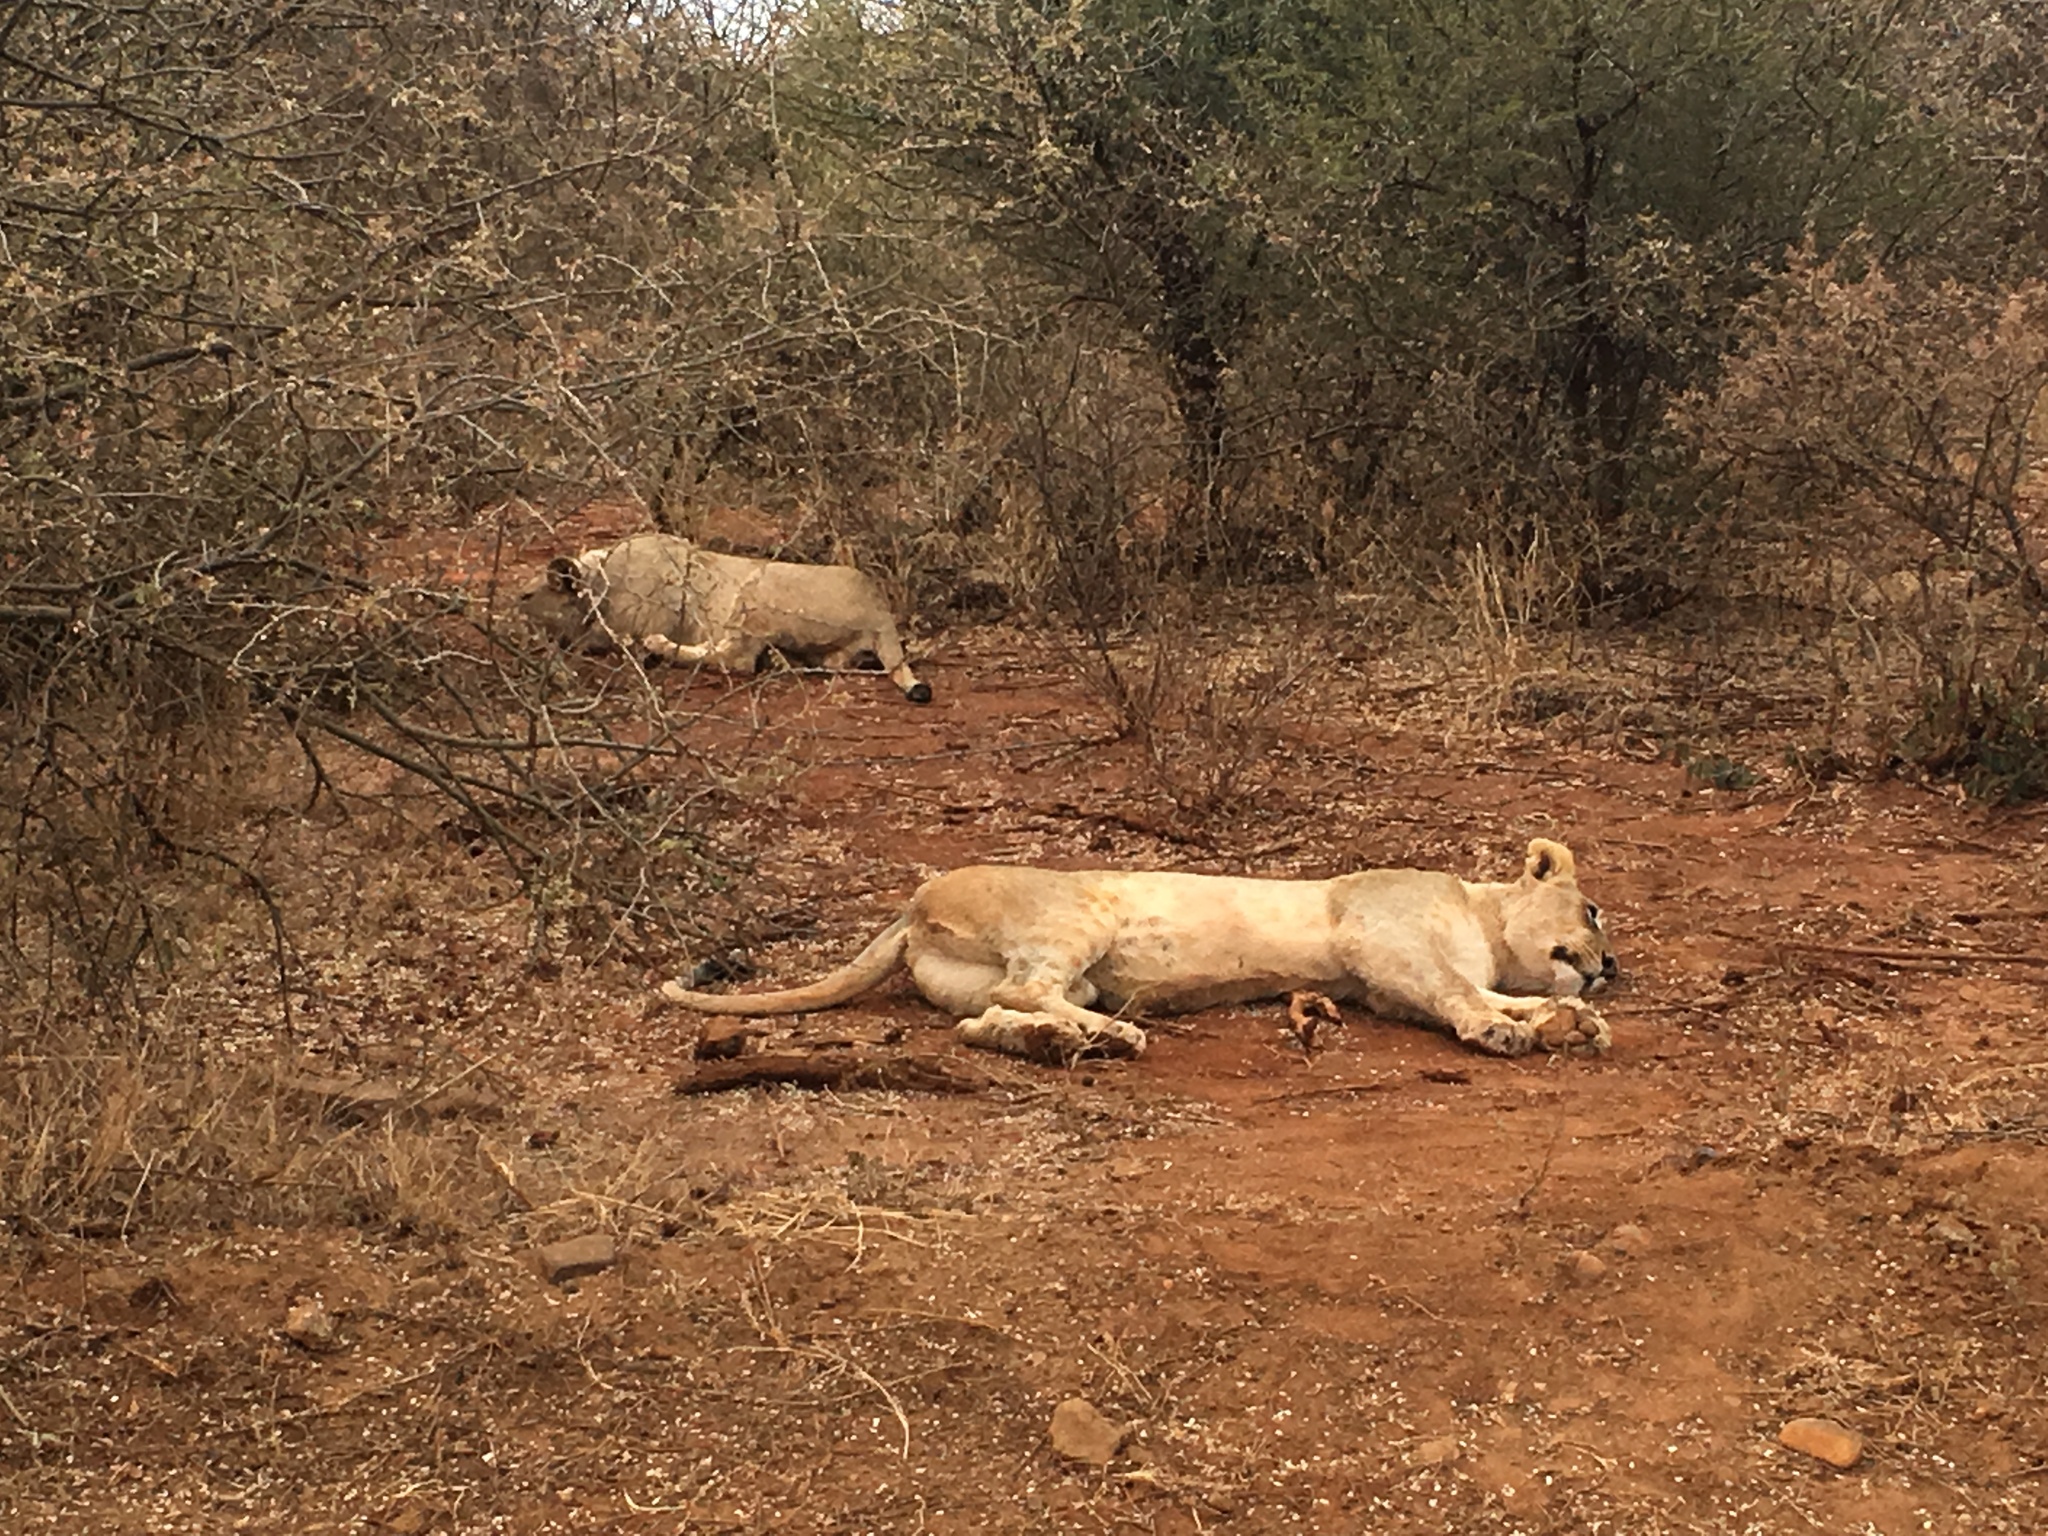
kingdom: Animalia
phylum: Chordata
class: Mammalia
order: Carnivora
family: Felidae
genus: Panthera
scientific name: Panthera leo
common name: Lion
